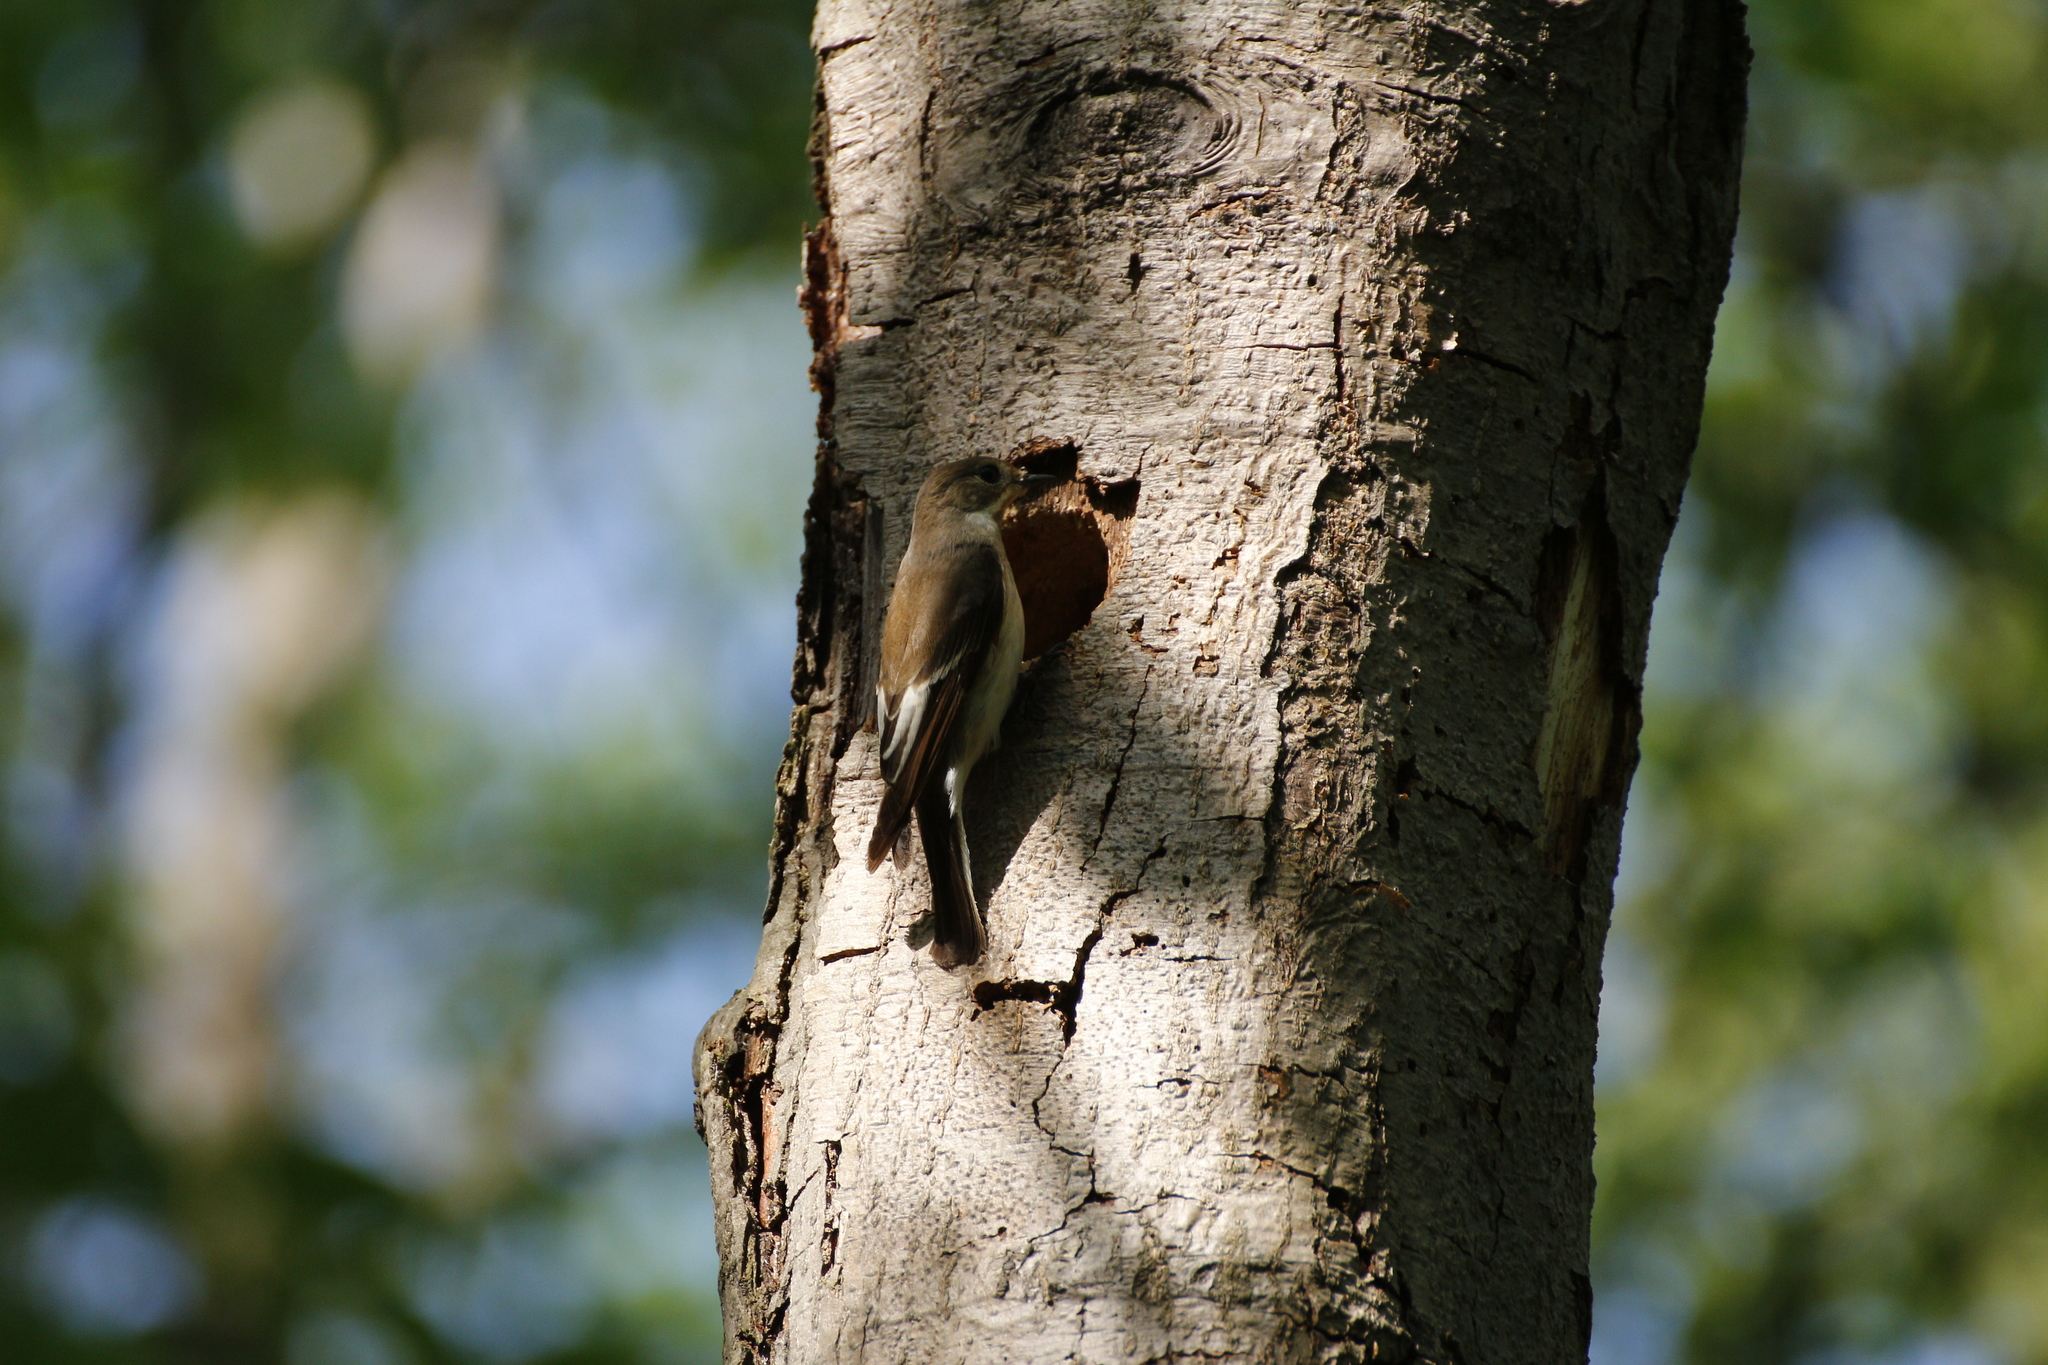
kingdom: Animalia
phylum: Chordata
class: Aves
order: Passeriformes
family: Muscicapidae
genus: Ficedula
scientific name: Ficedula hypoleuca
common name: European pied flycatcher
